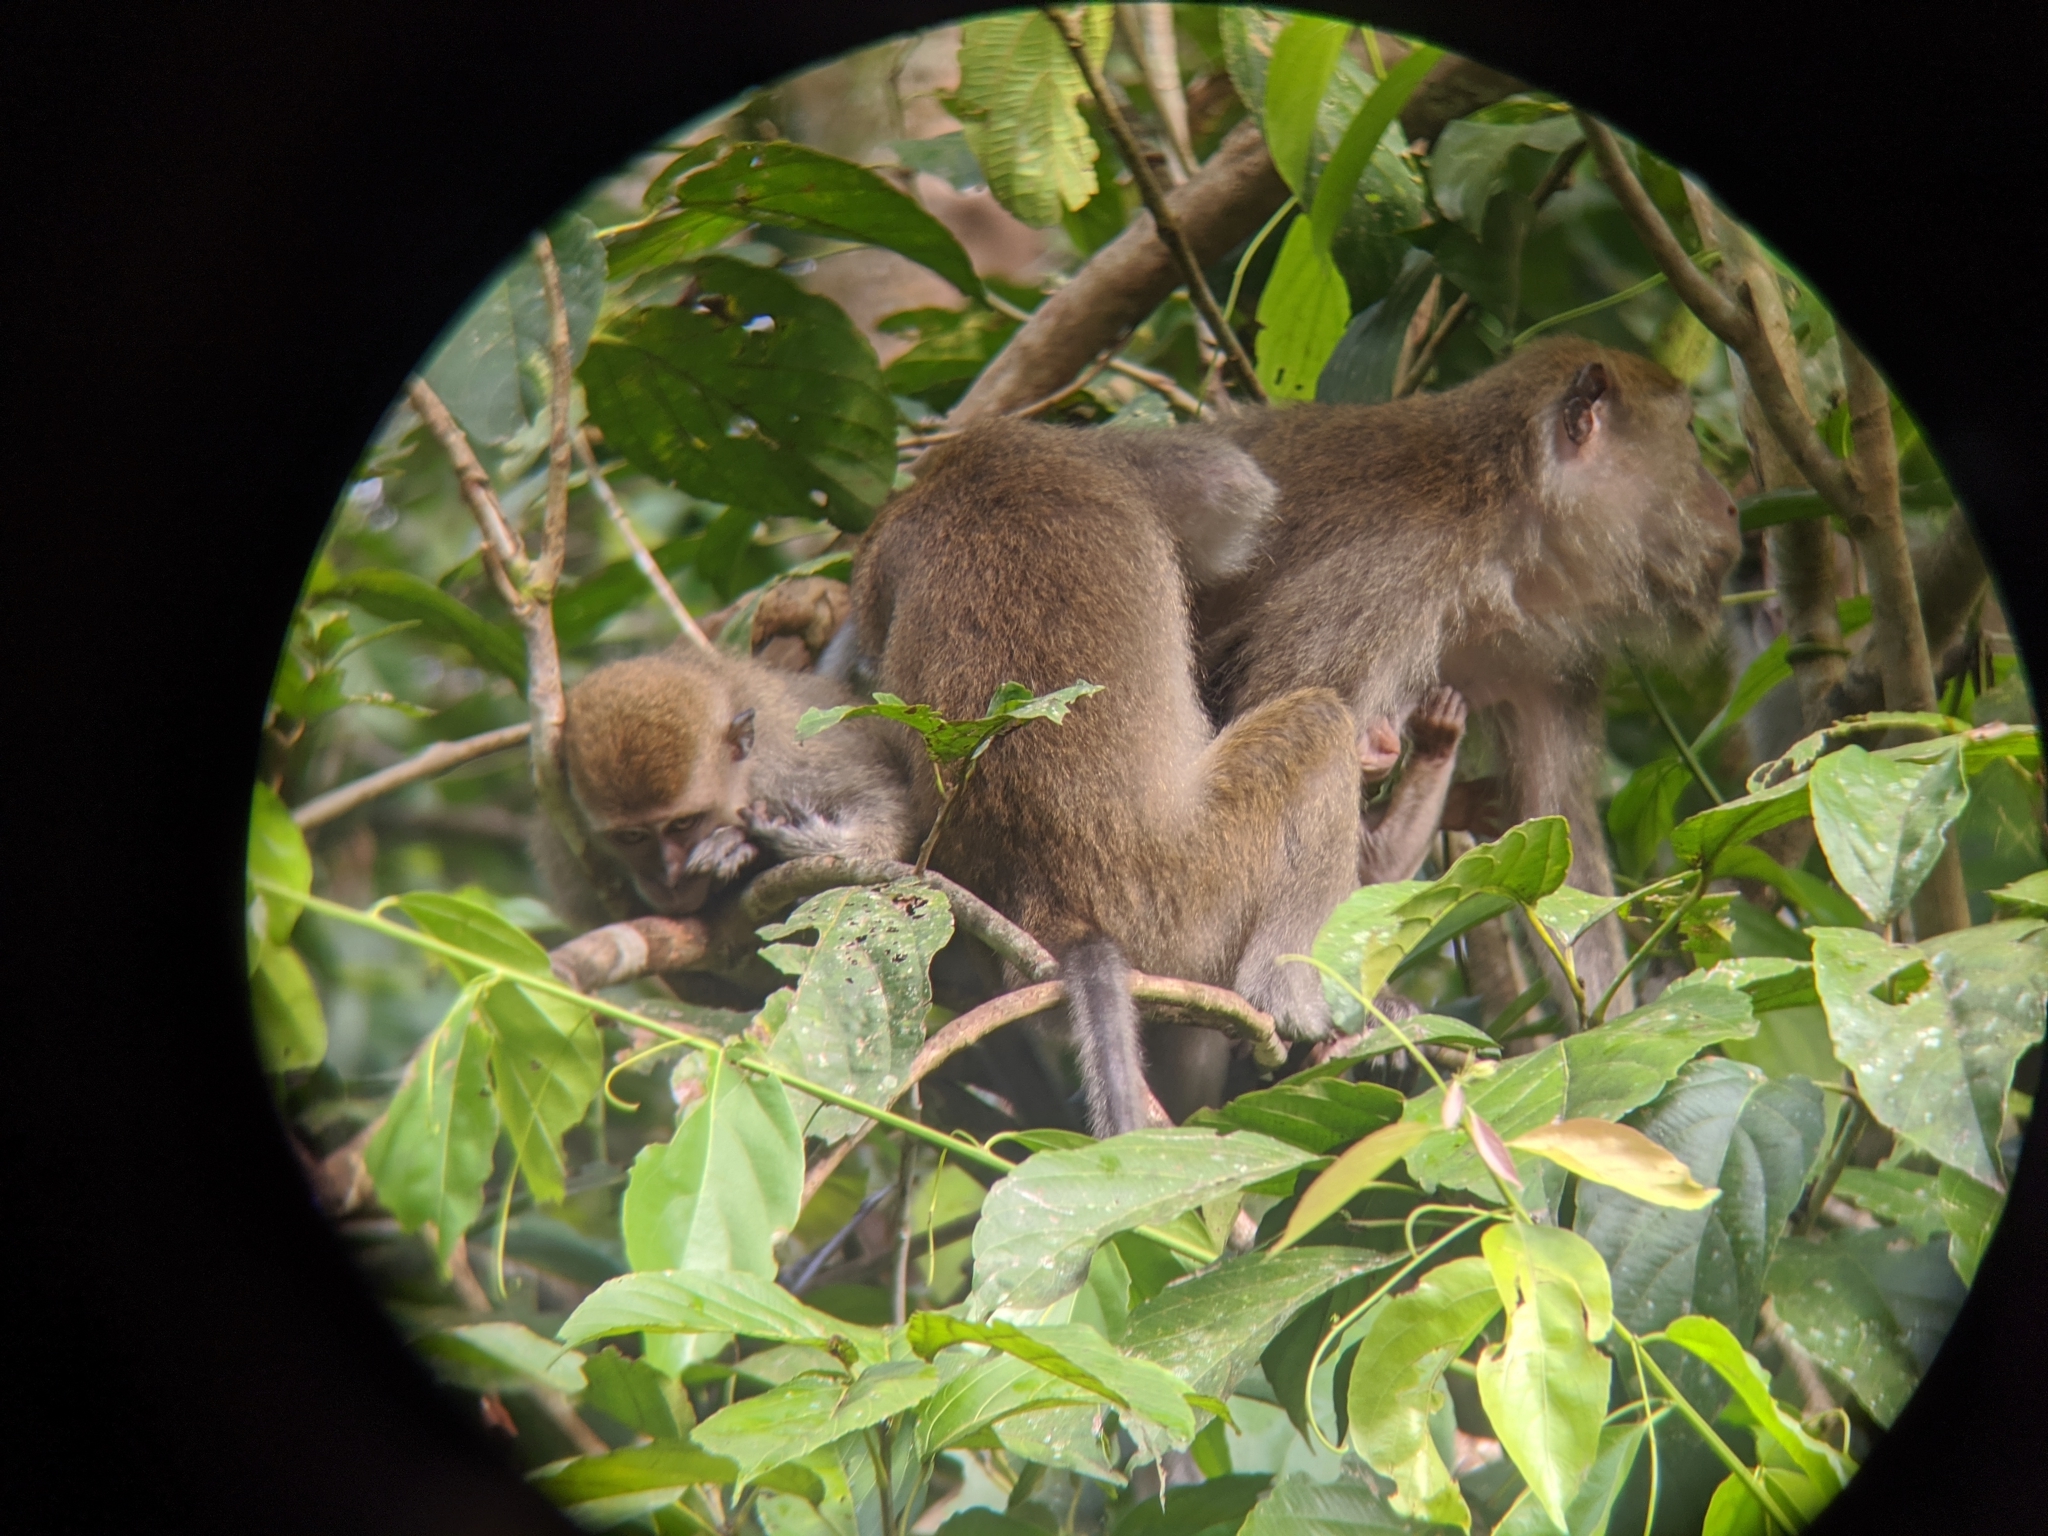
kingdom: Animalia
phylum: Chordata
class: Mammalia
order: Primates
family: Cercopithecidae
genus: Macaca
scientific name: Macaca fascicularis
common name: Crab-eating macaque
